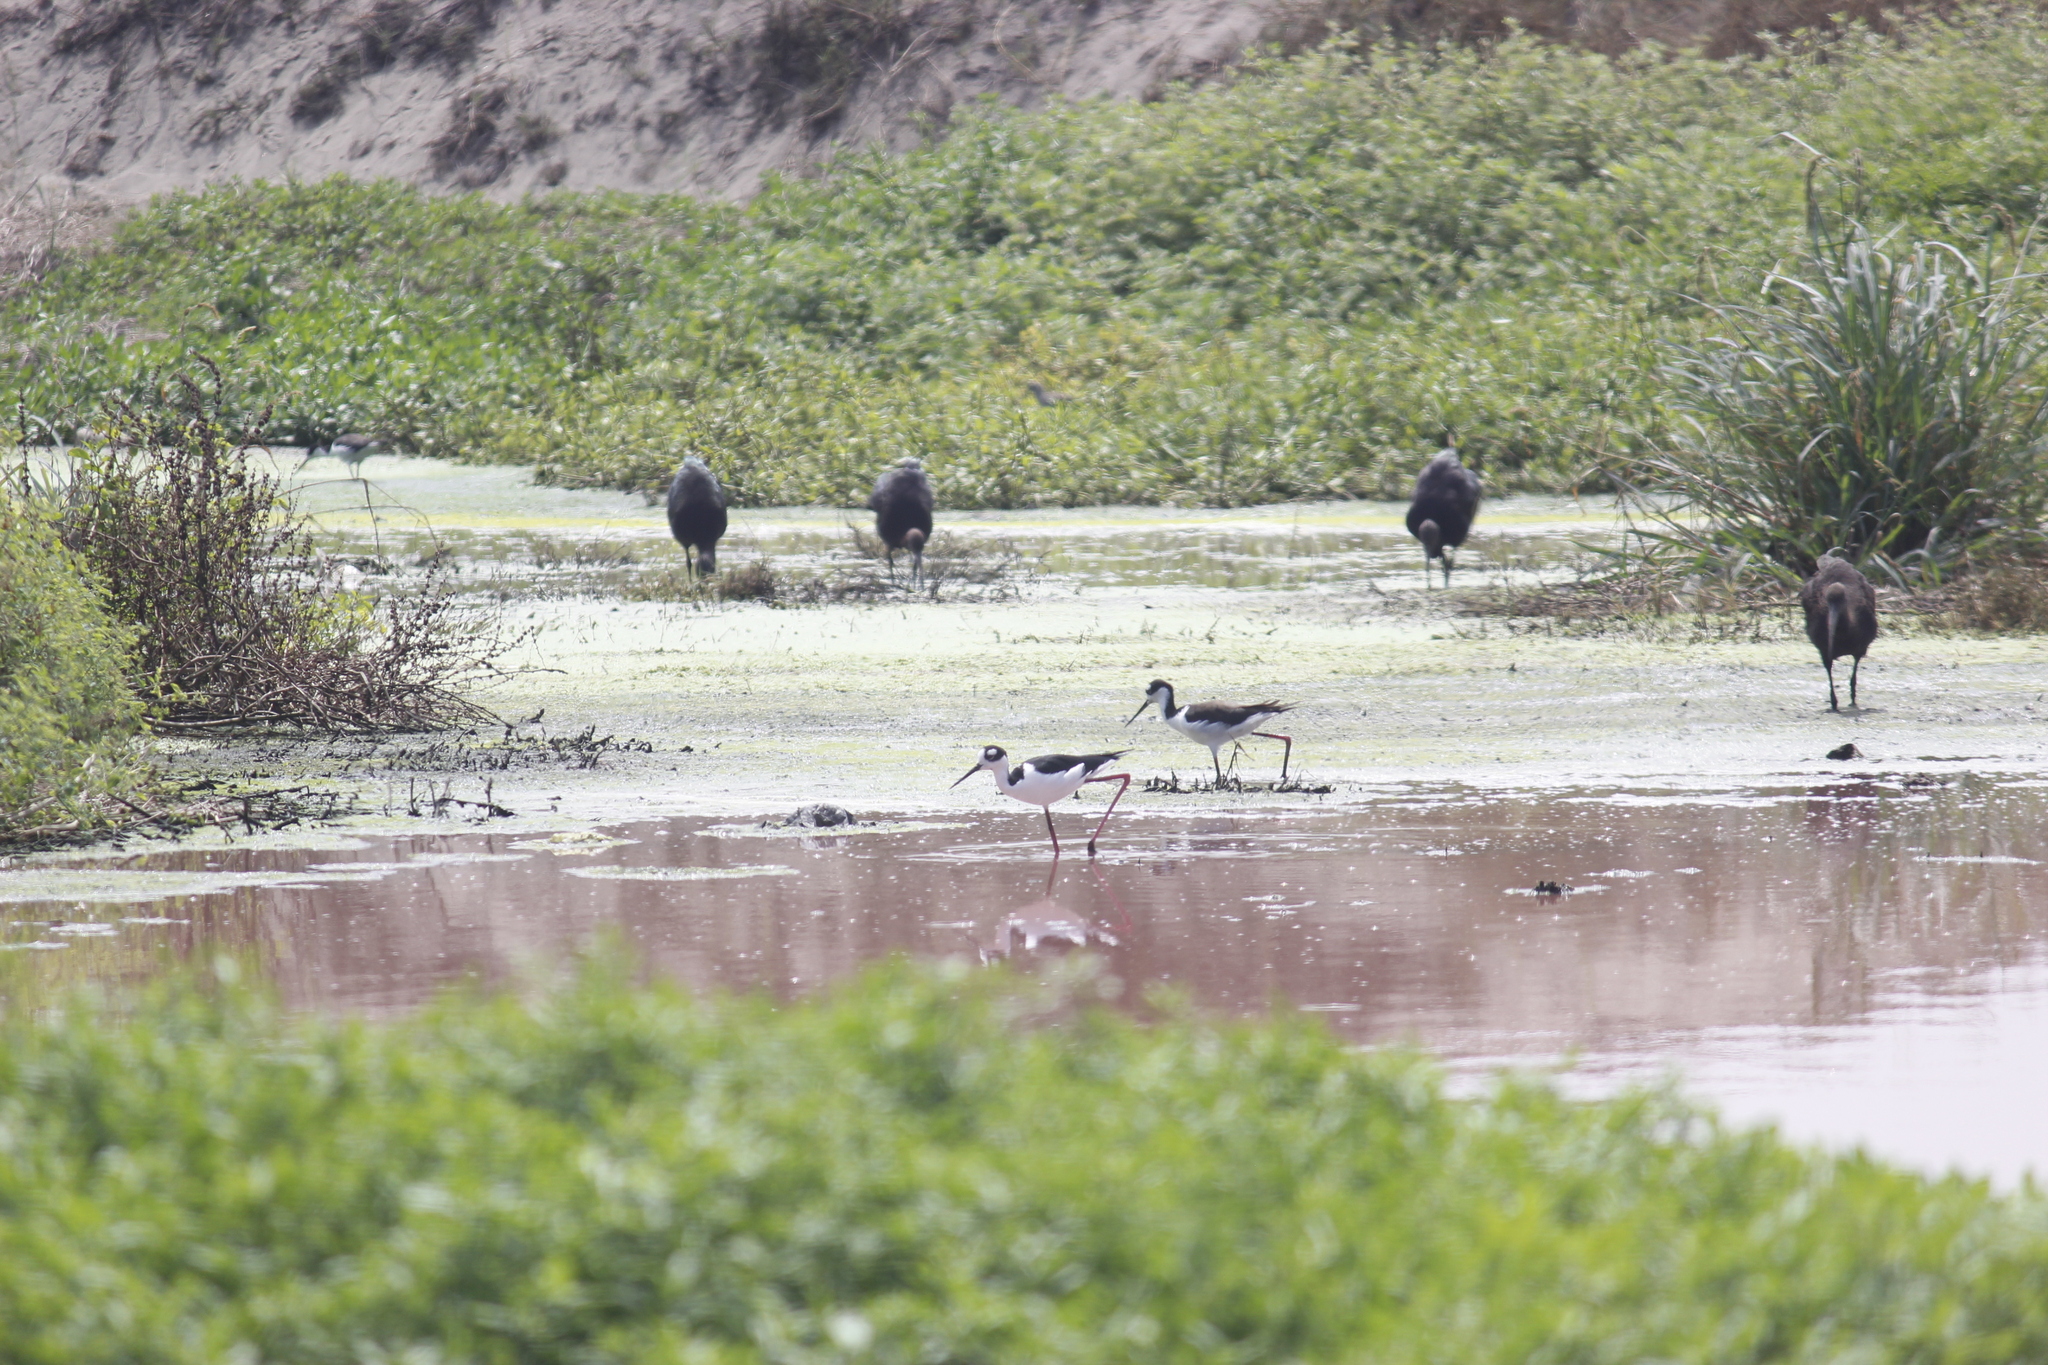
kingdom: Animalia
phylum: Chordata
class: Aves
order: Charadriiformes
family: Recurvirostridae
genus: Himantopus
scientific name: Himantopus mexicanus
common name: Black-necked stilt
